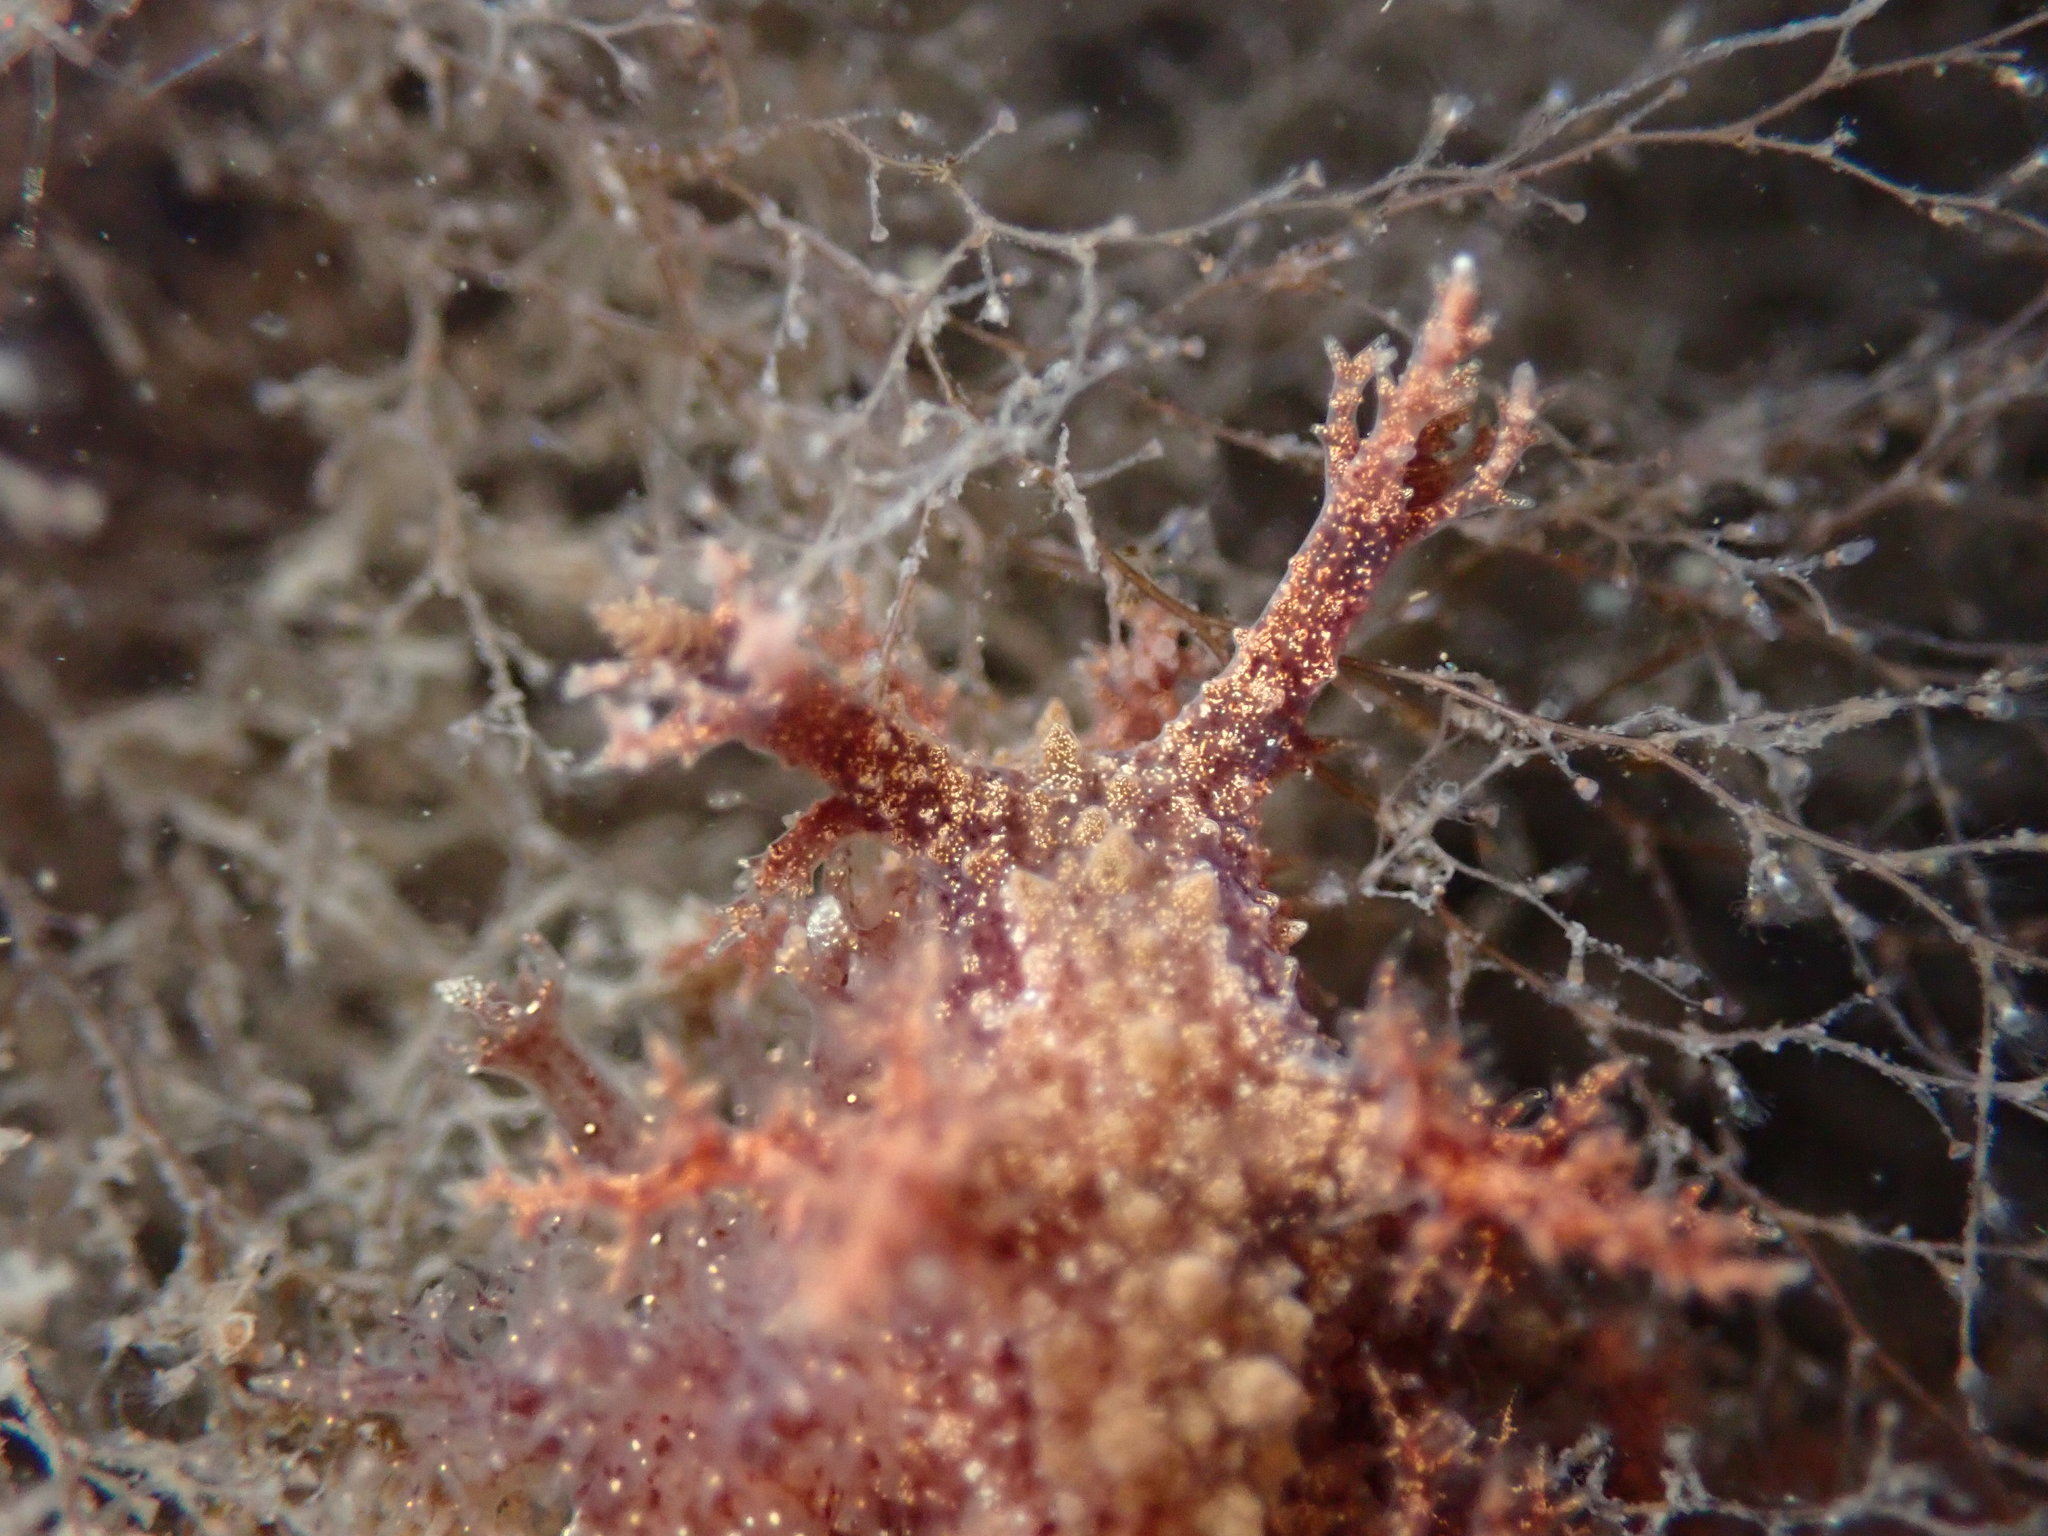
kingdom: Animalia
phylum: Mollusca
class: Gastropoda
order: Nudibranchia
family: Dendronotidae
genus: Dendronotus
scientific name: Dendronotus venustus
